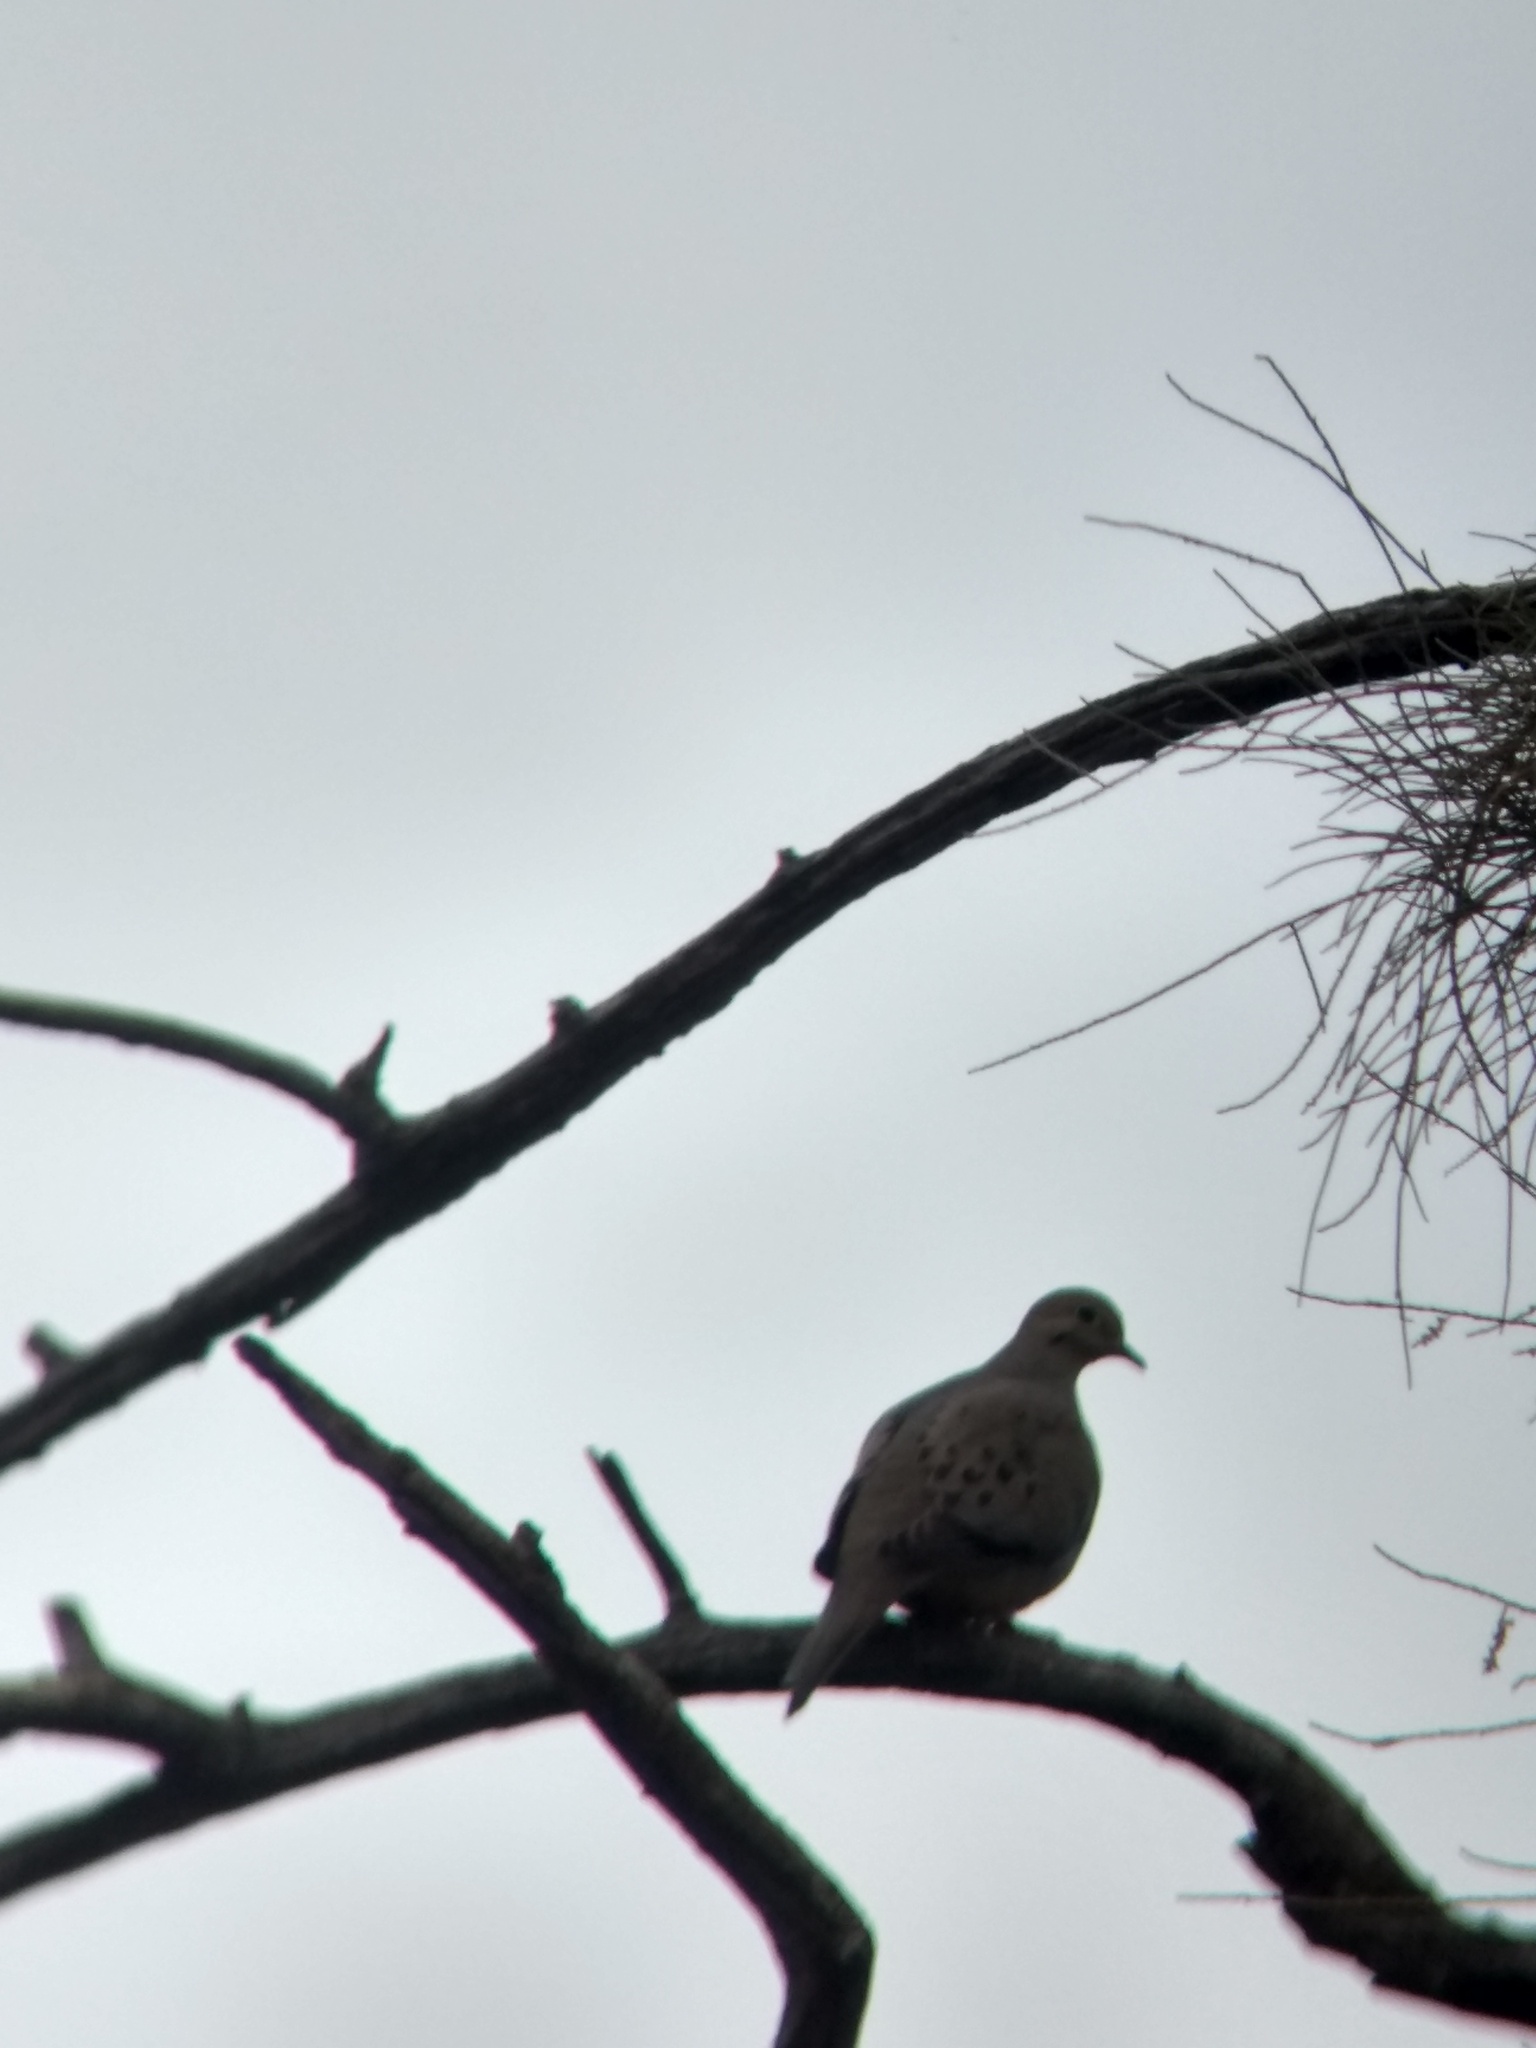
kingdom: Animalia
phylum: Chordata
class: Aves
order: Columbiformes
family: Columbidae
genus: Zenaida
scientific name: Zenaida macroura
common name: Mourning dove
